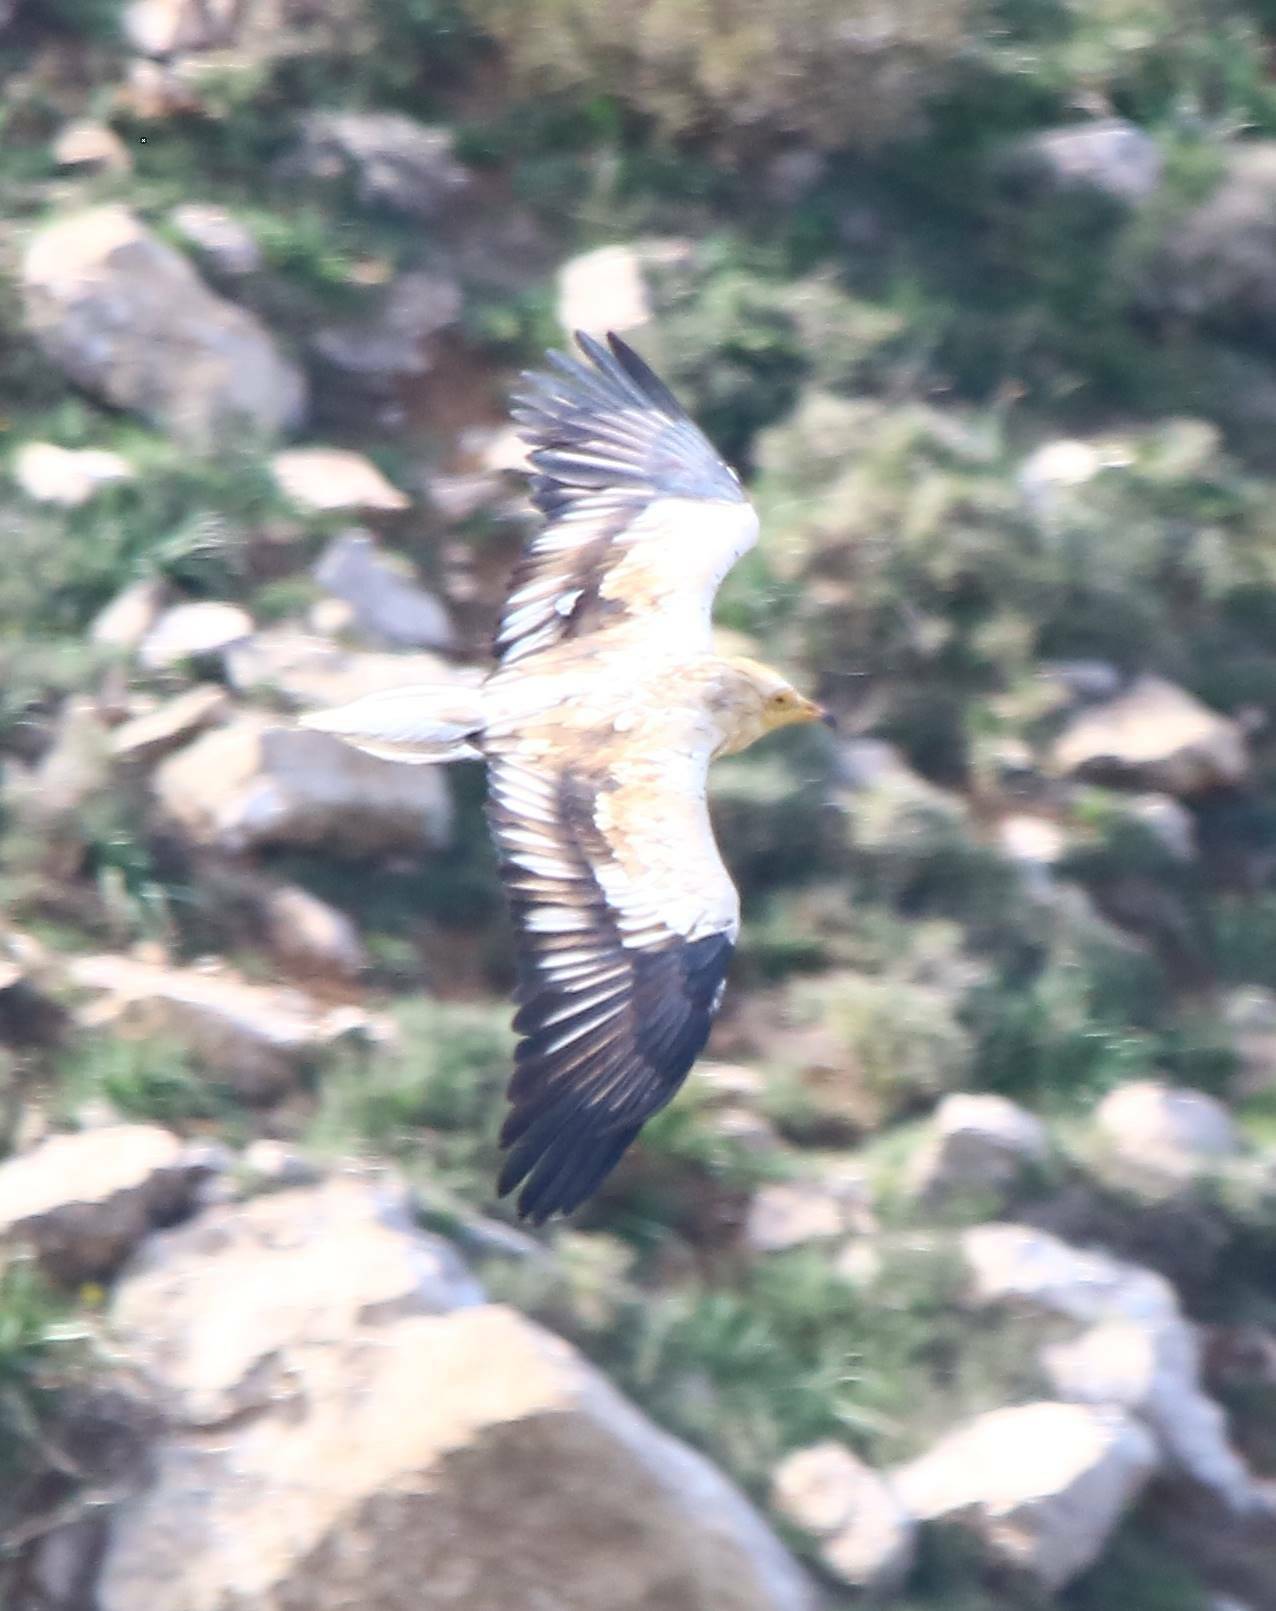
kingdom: Animalia
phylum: Chordata
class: Aves
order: Accipitriformes
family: Accipitridae
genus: Neophron
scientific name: Neophron percnopterus
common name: Egyptian vulture
